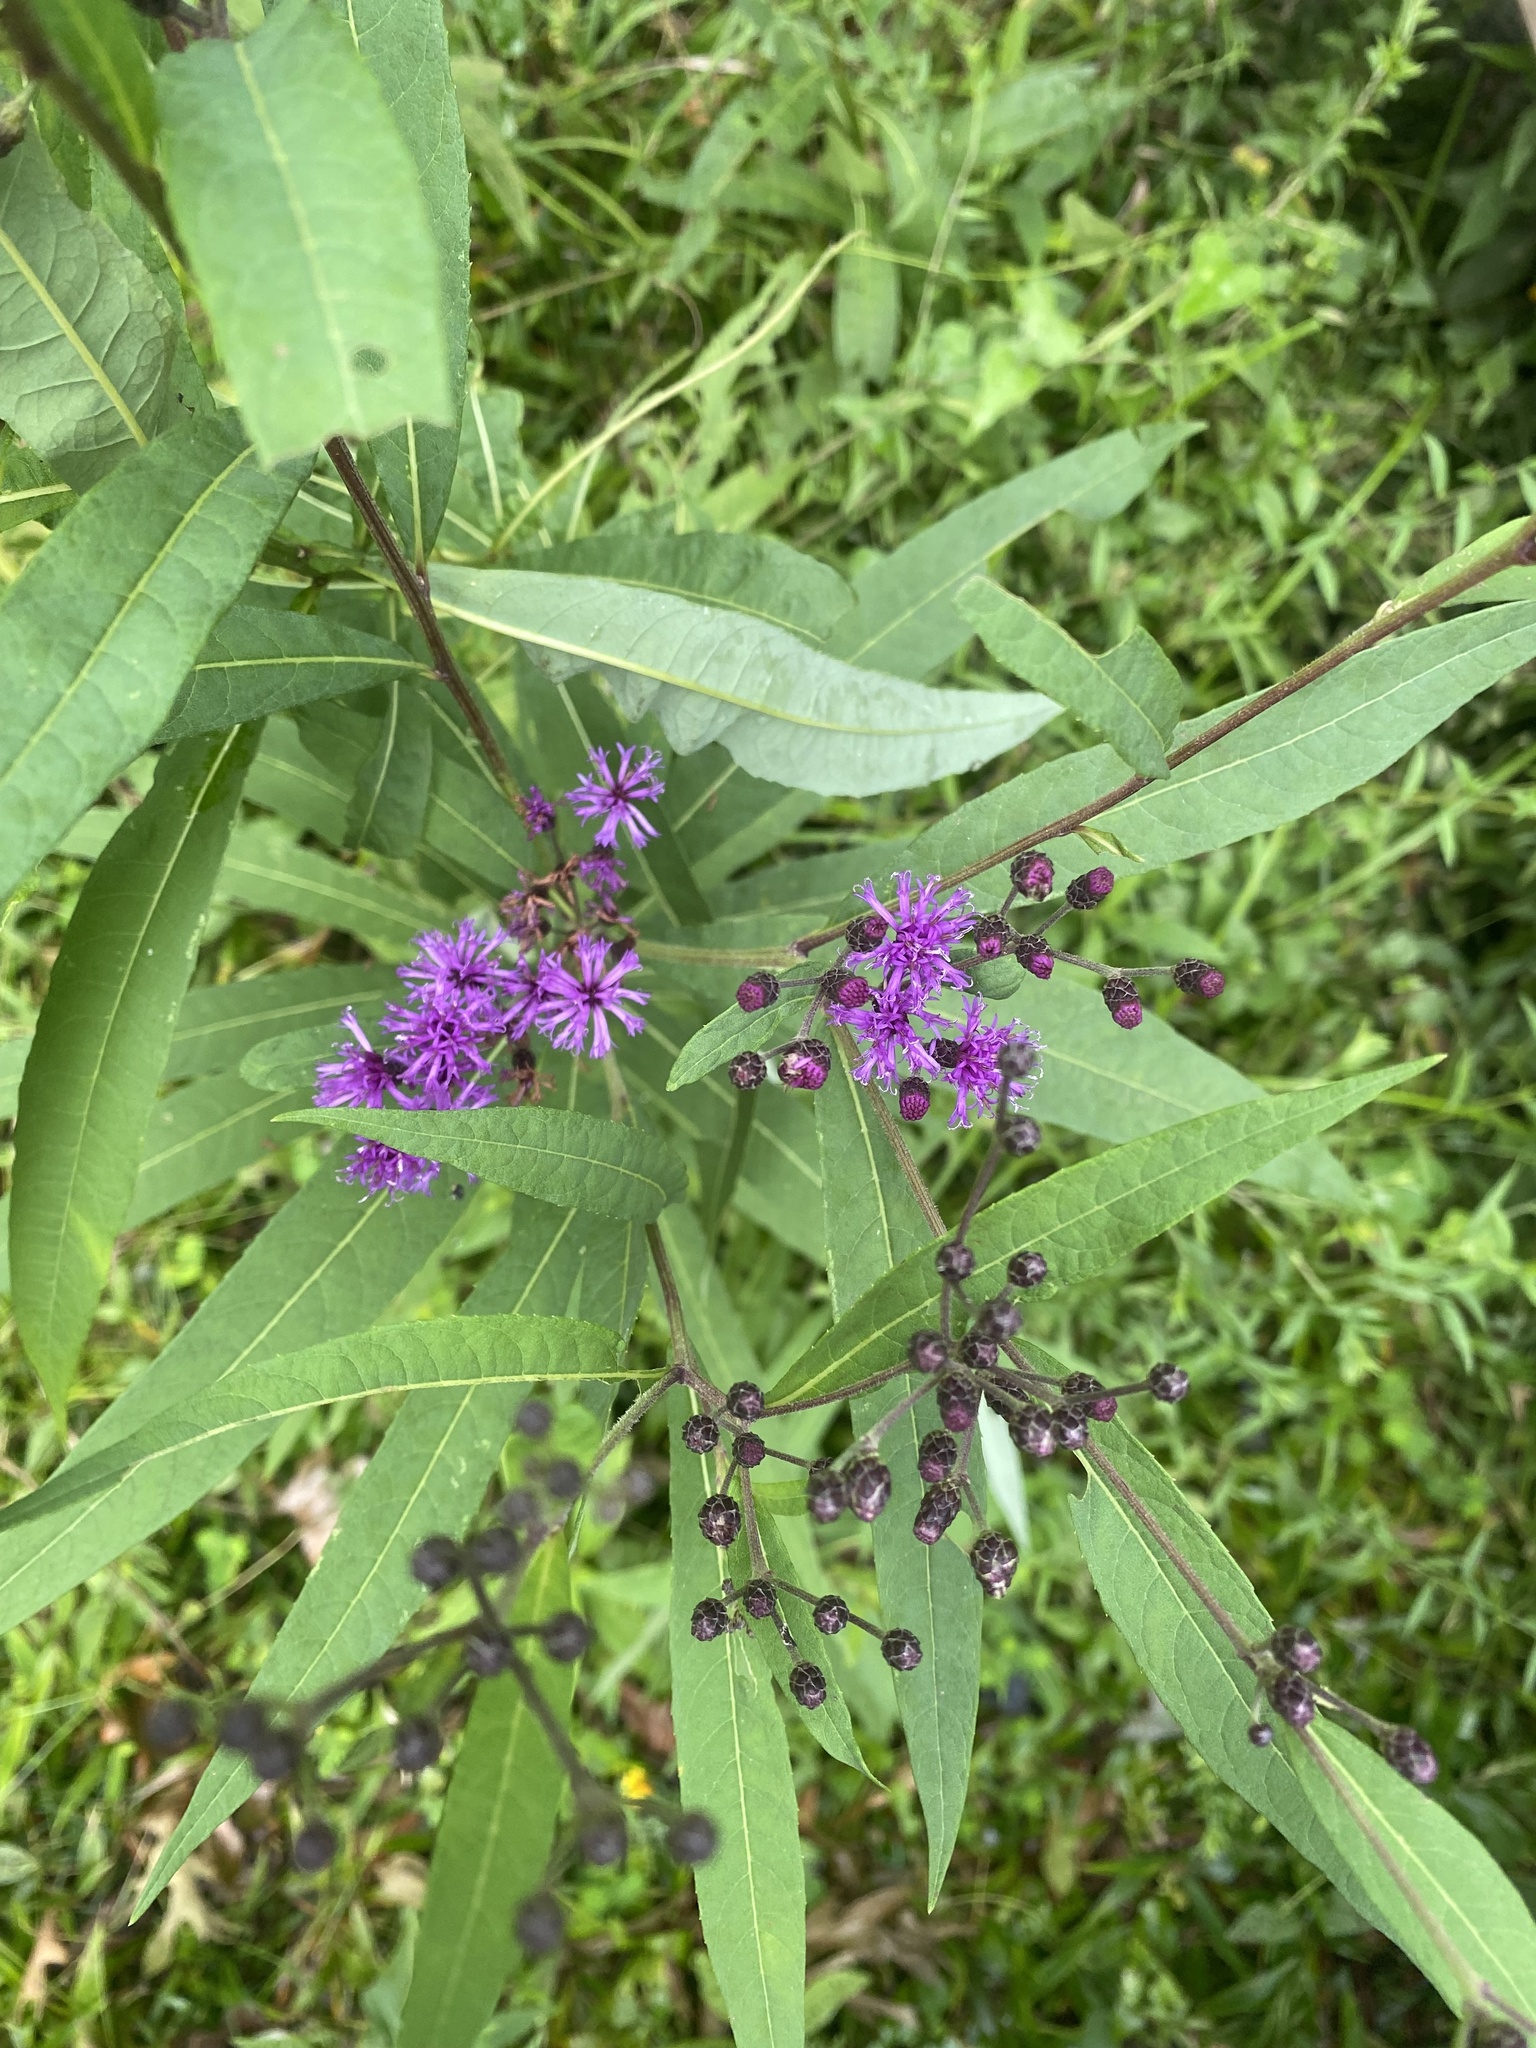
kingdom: Plantae
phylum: Tracheophyta
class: Magnoliopsida
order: Asterales
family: Asteraceae
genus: Vernonia
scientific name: Vernonia gigantea
